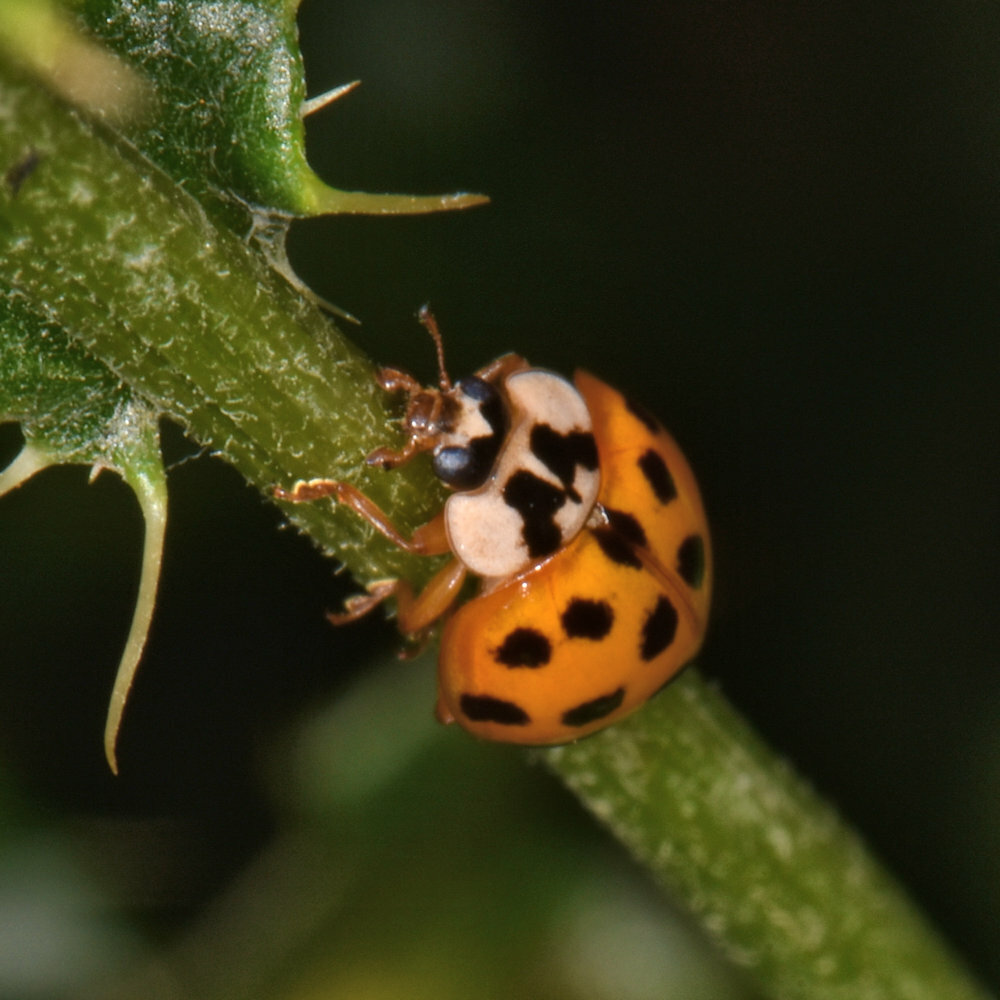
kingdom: Animalia
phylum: Arthropoda
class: Insecta
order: Coleoptera
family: Coccinellidae
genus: Harmonia
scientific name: Harmonia axyridis
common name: Harlequin ladybird
